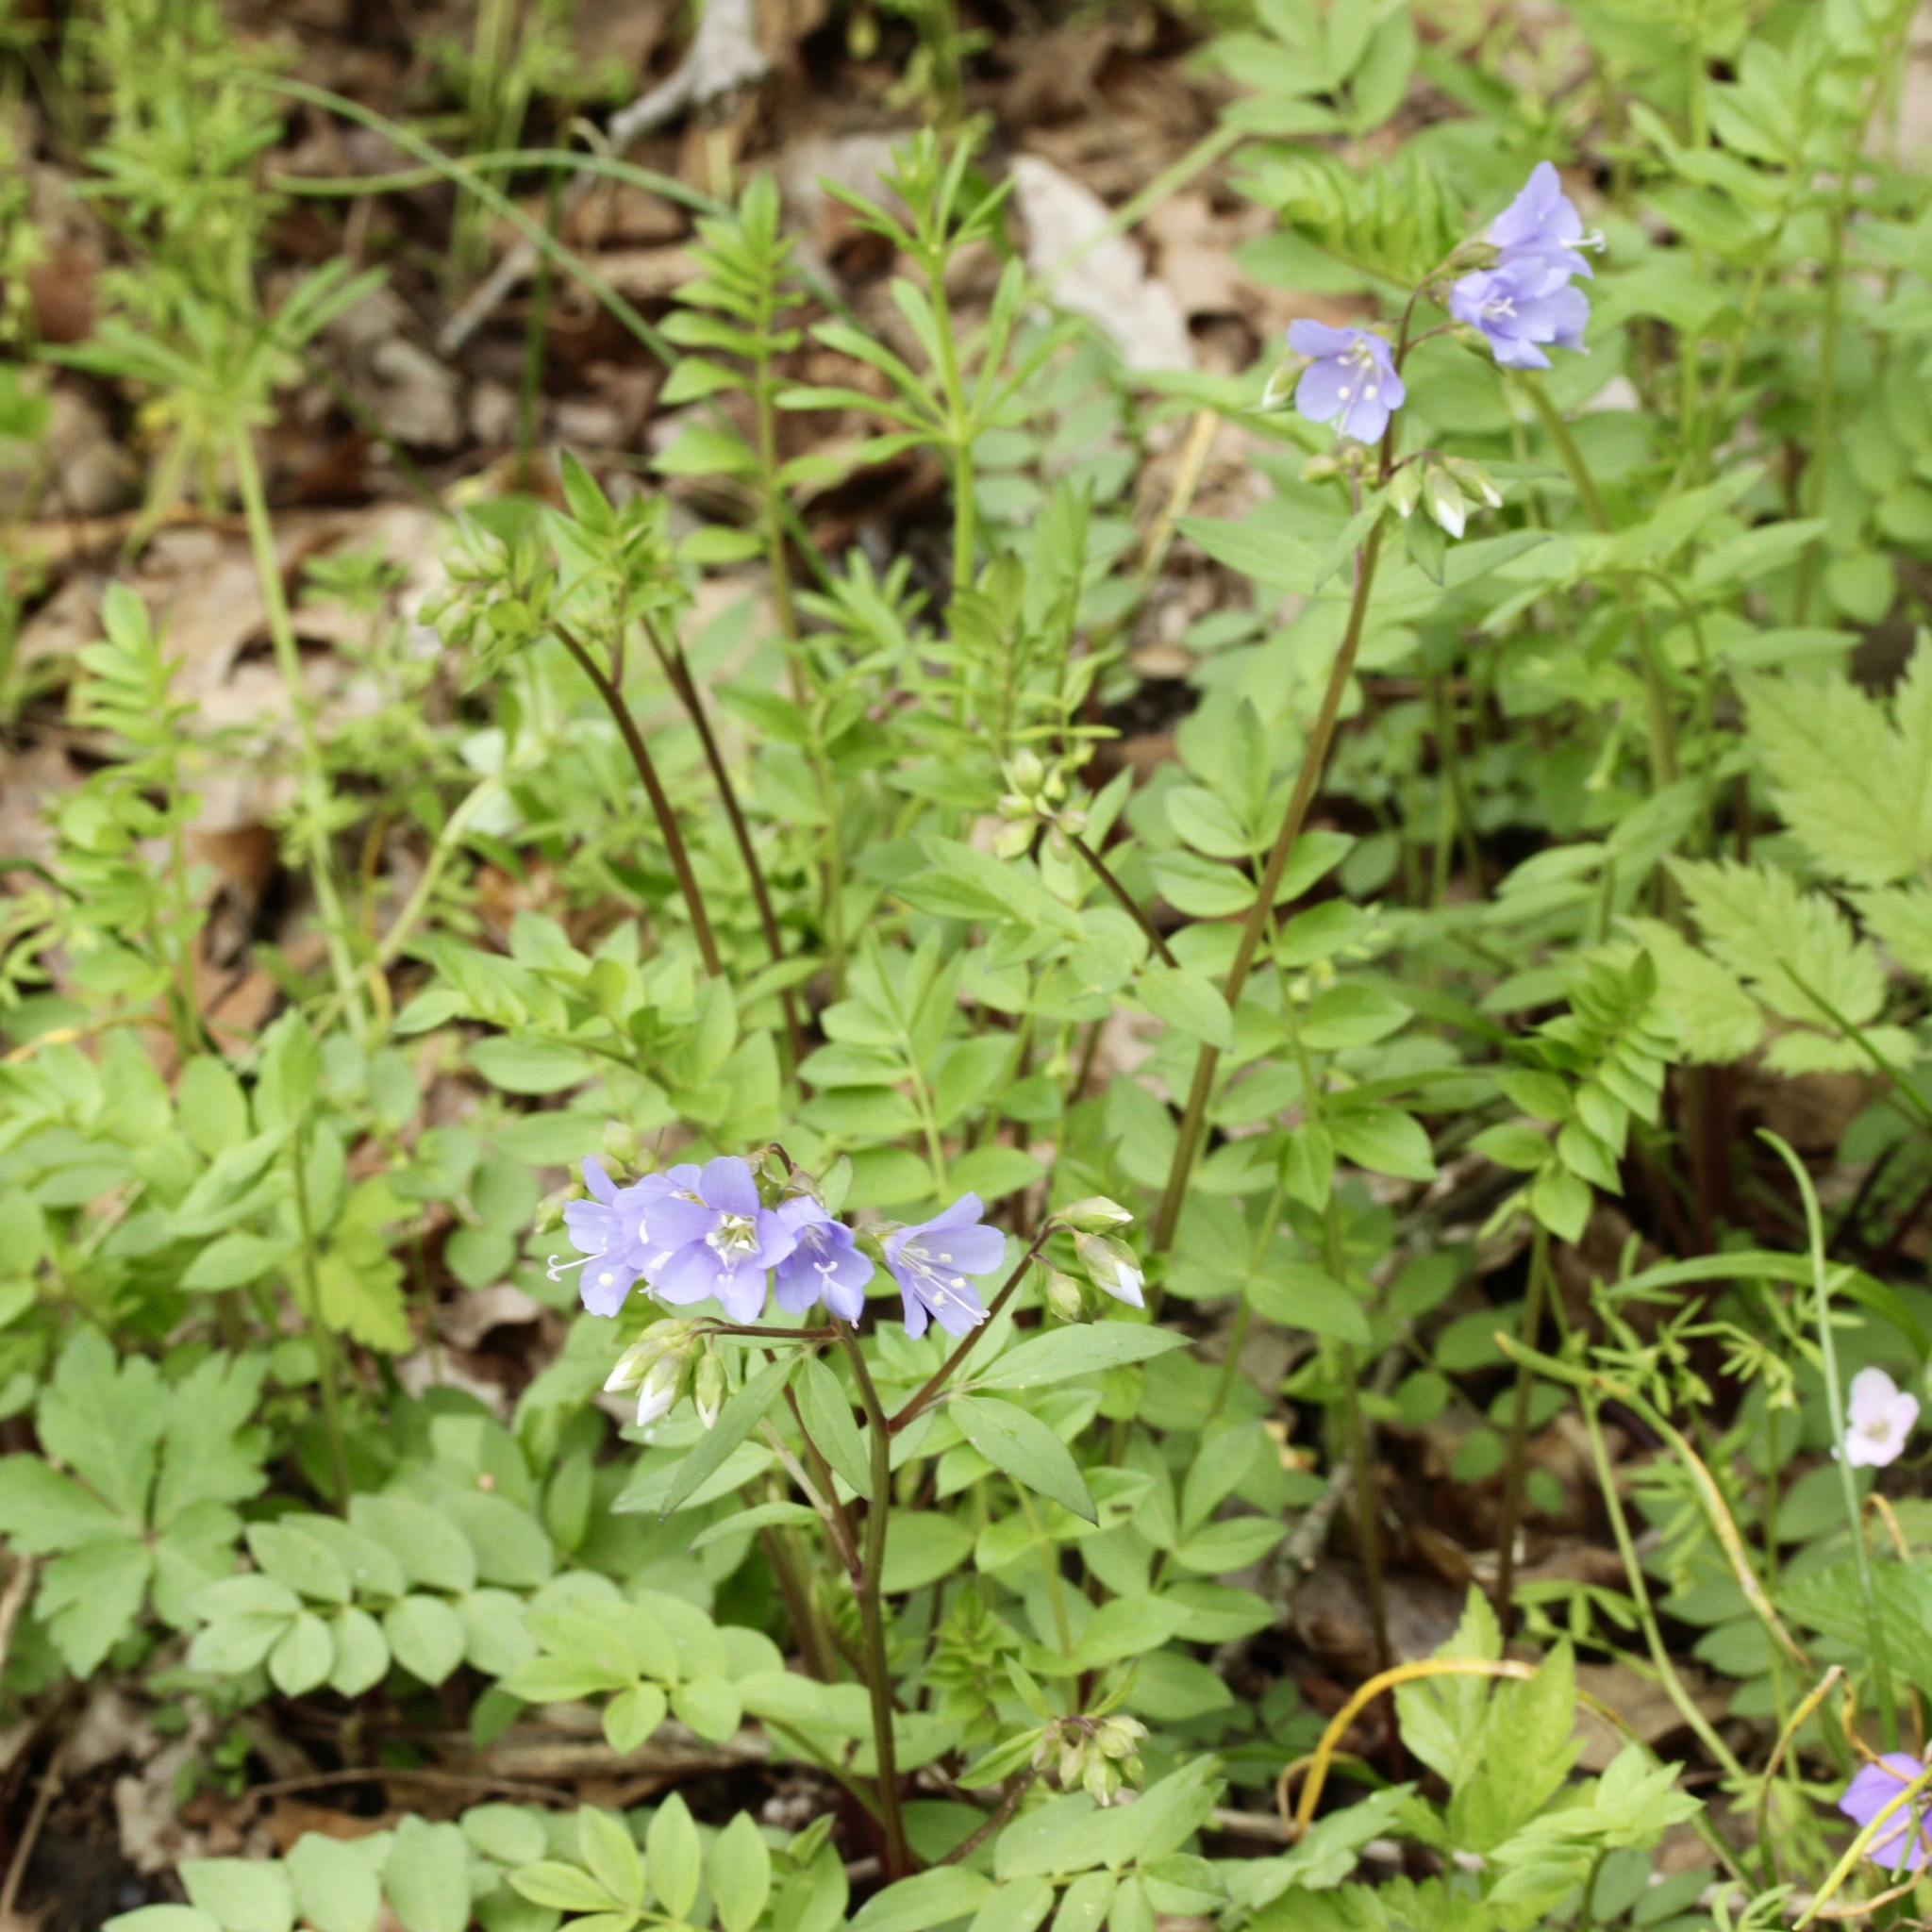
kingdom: Plantae
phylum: Tracheophyta
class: Magnoliopsida
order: Ericales
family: Polemoniaceae
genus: Polemonium
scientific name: Polemonium reptans
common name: Creeping jacob's-ladder
